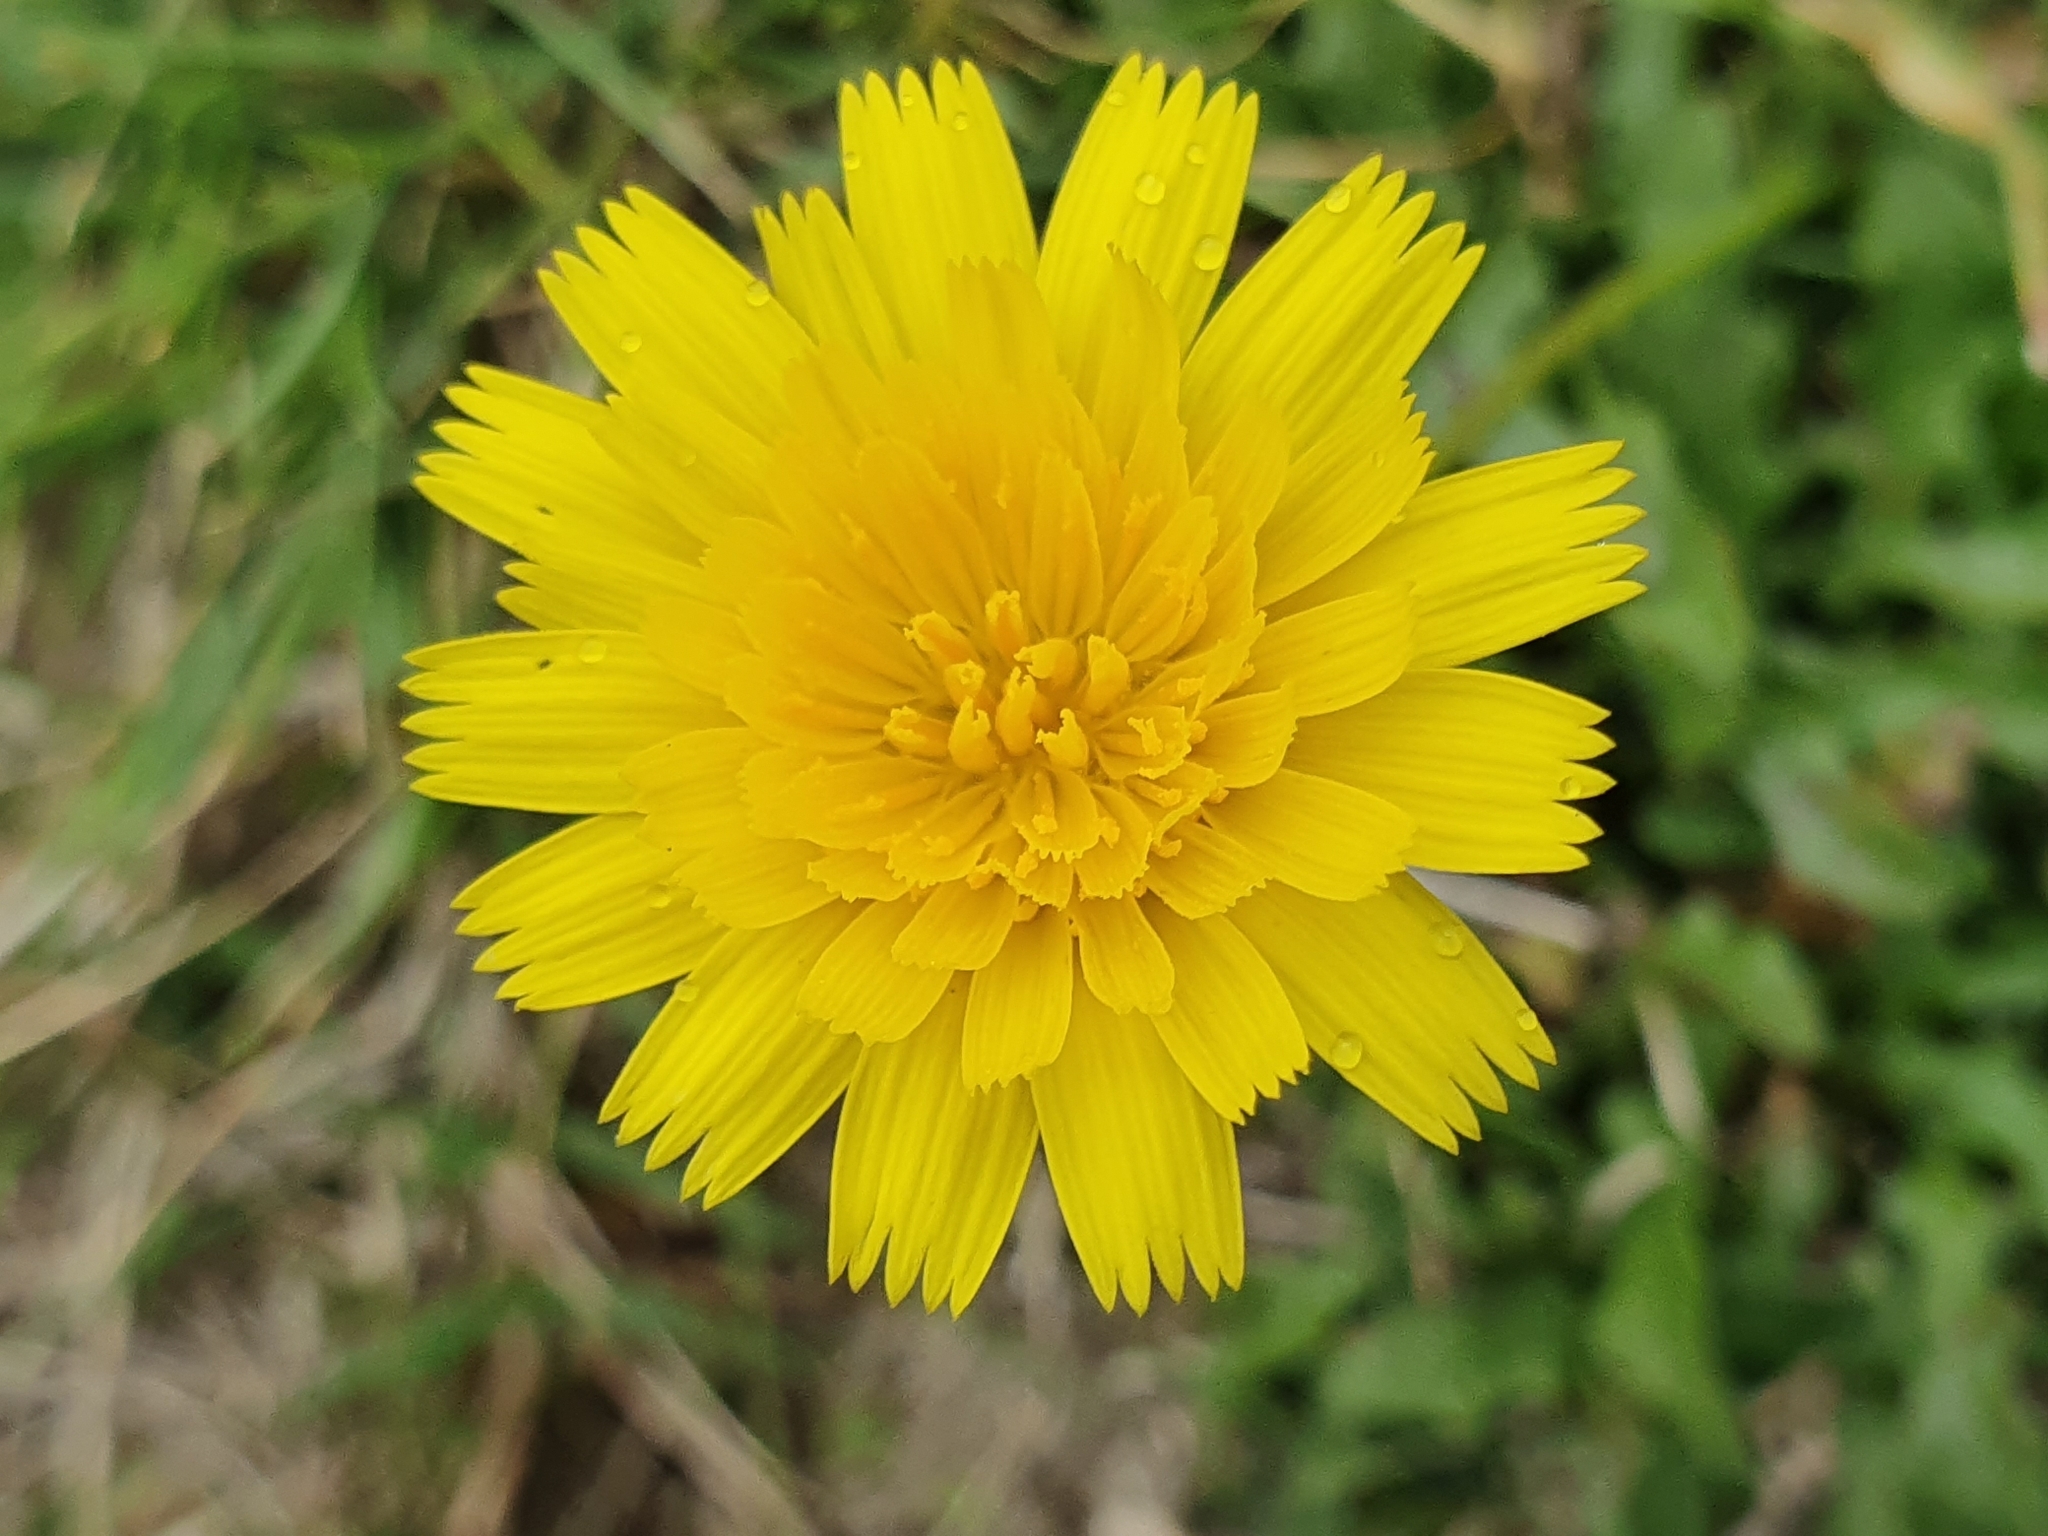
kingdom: Plantae
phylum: Tracheophyta
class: Magnoliopsida
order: Asterales
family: Asteraceae
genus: Hypochaeris
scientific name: Hypochaeris radicata
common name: Flatweed
